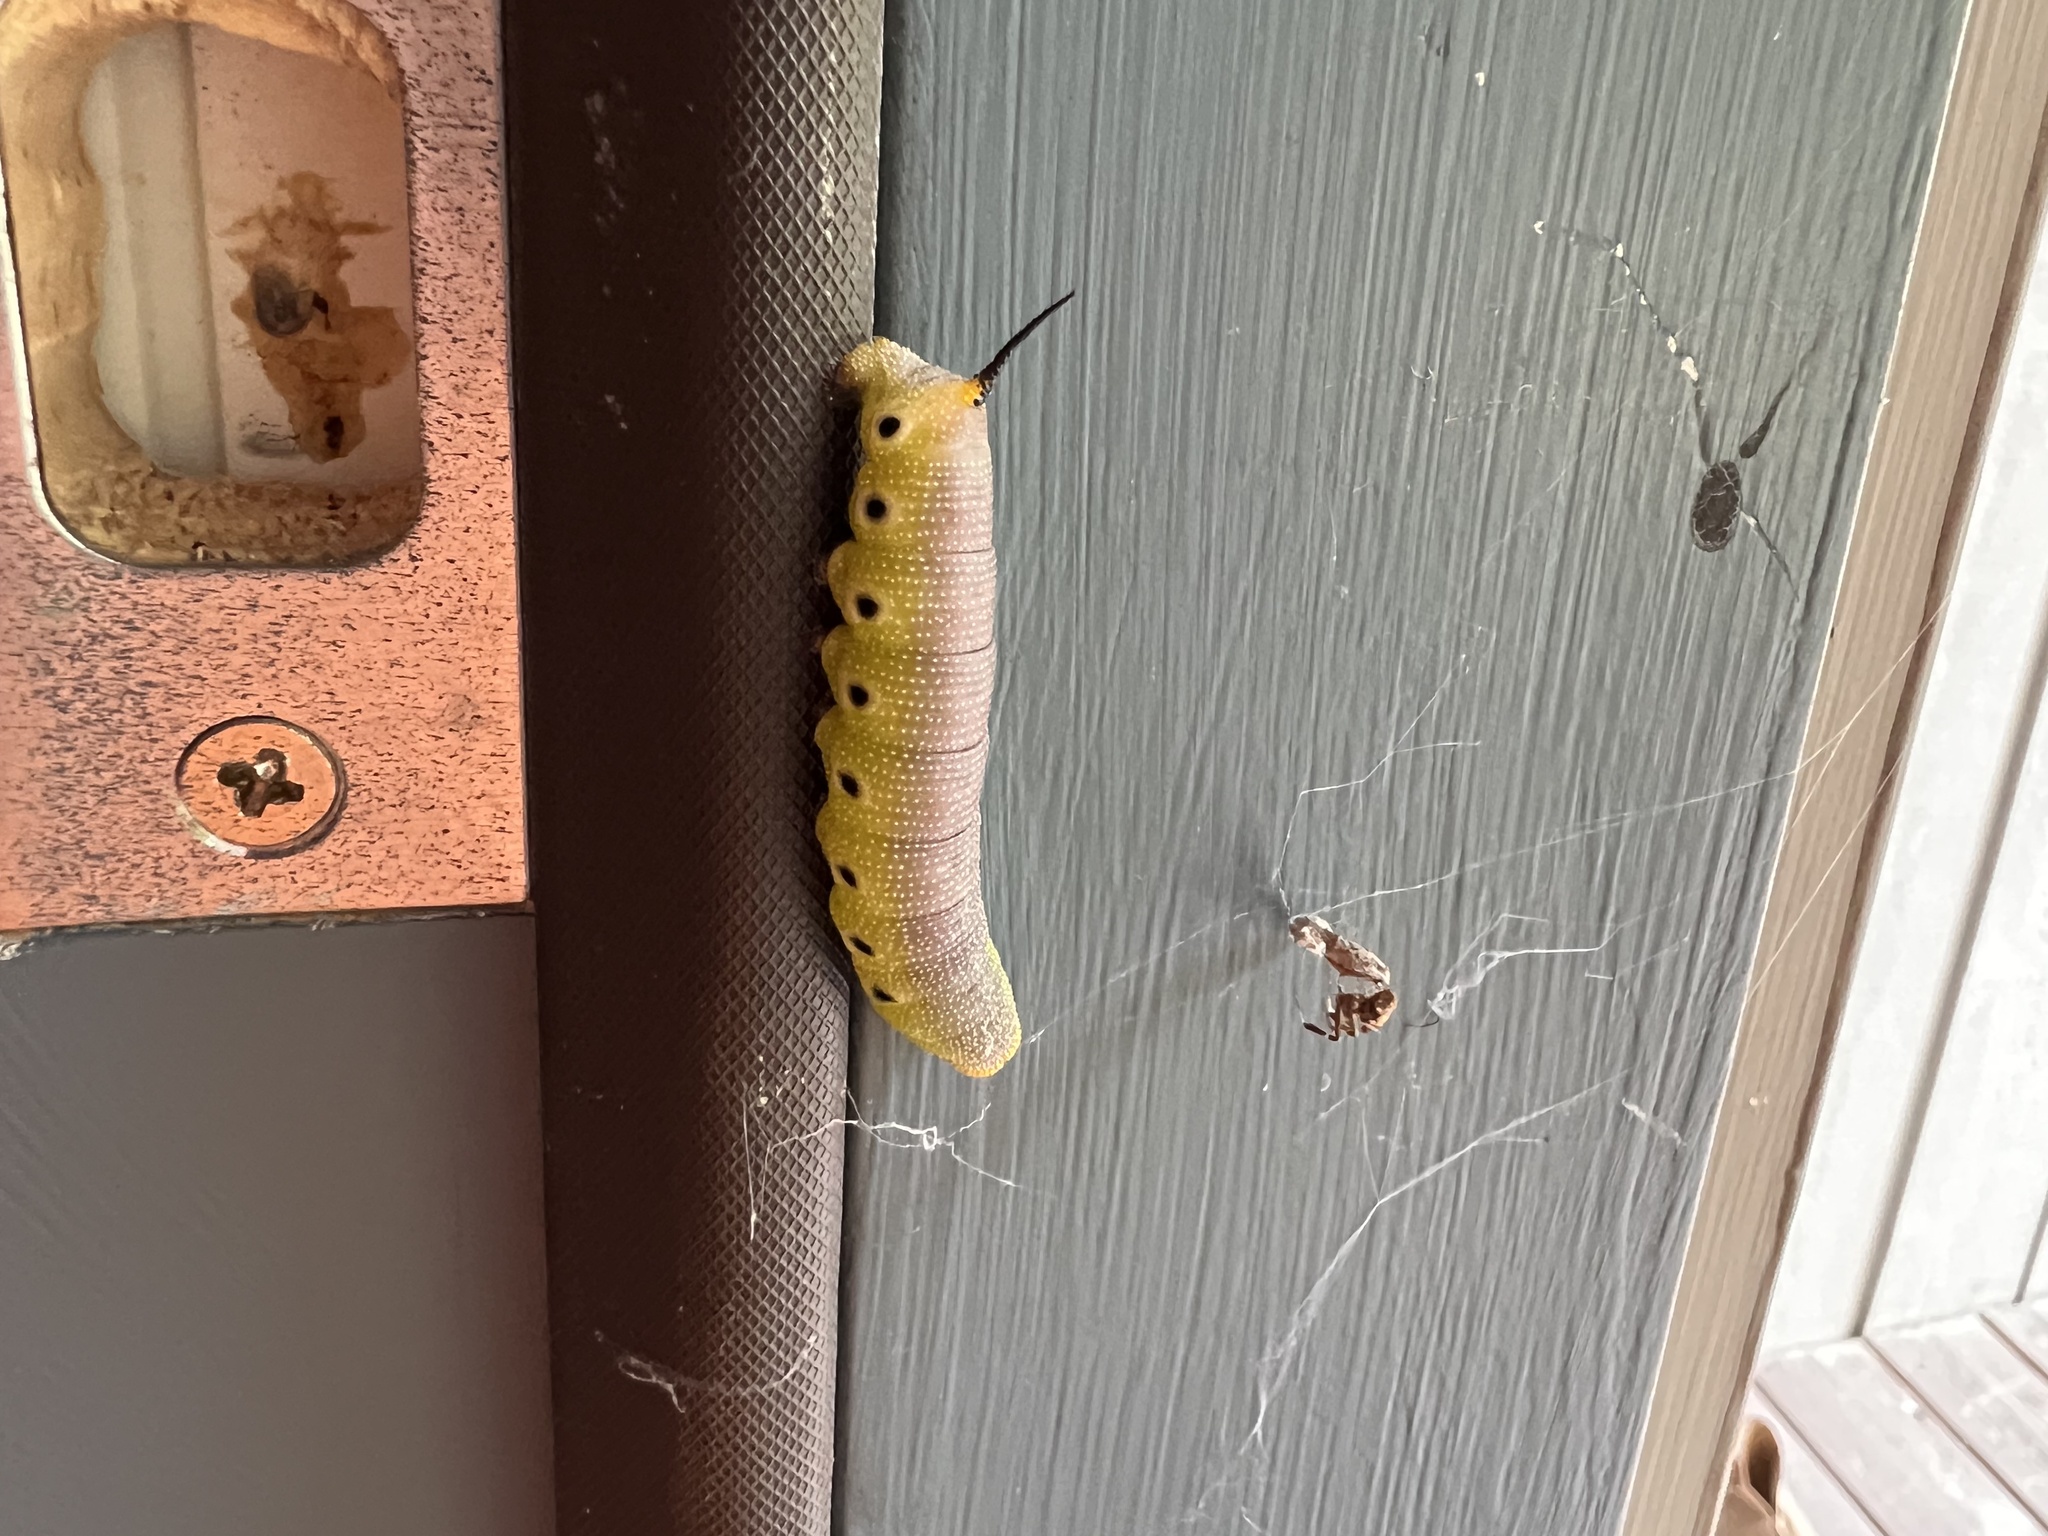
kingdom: Animalia
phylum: Arthropoda
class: Insecta
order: Lepidoptera
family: Sphingidae
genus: Hemaris
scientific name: Hemaris diffinis
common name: Bumblebee moth
